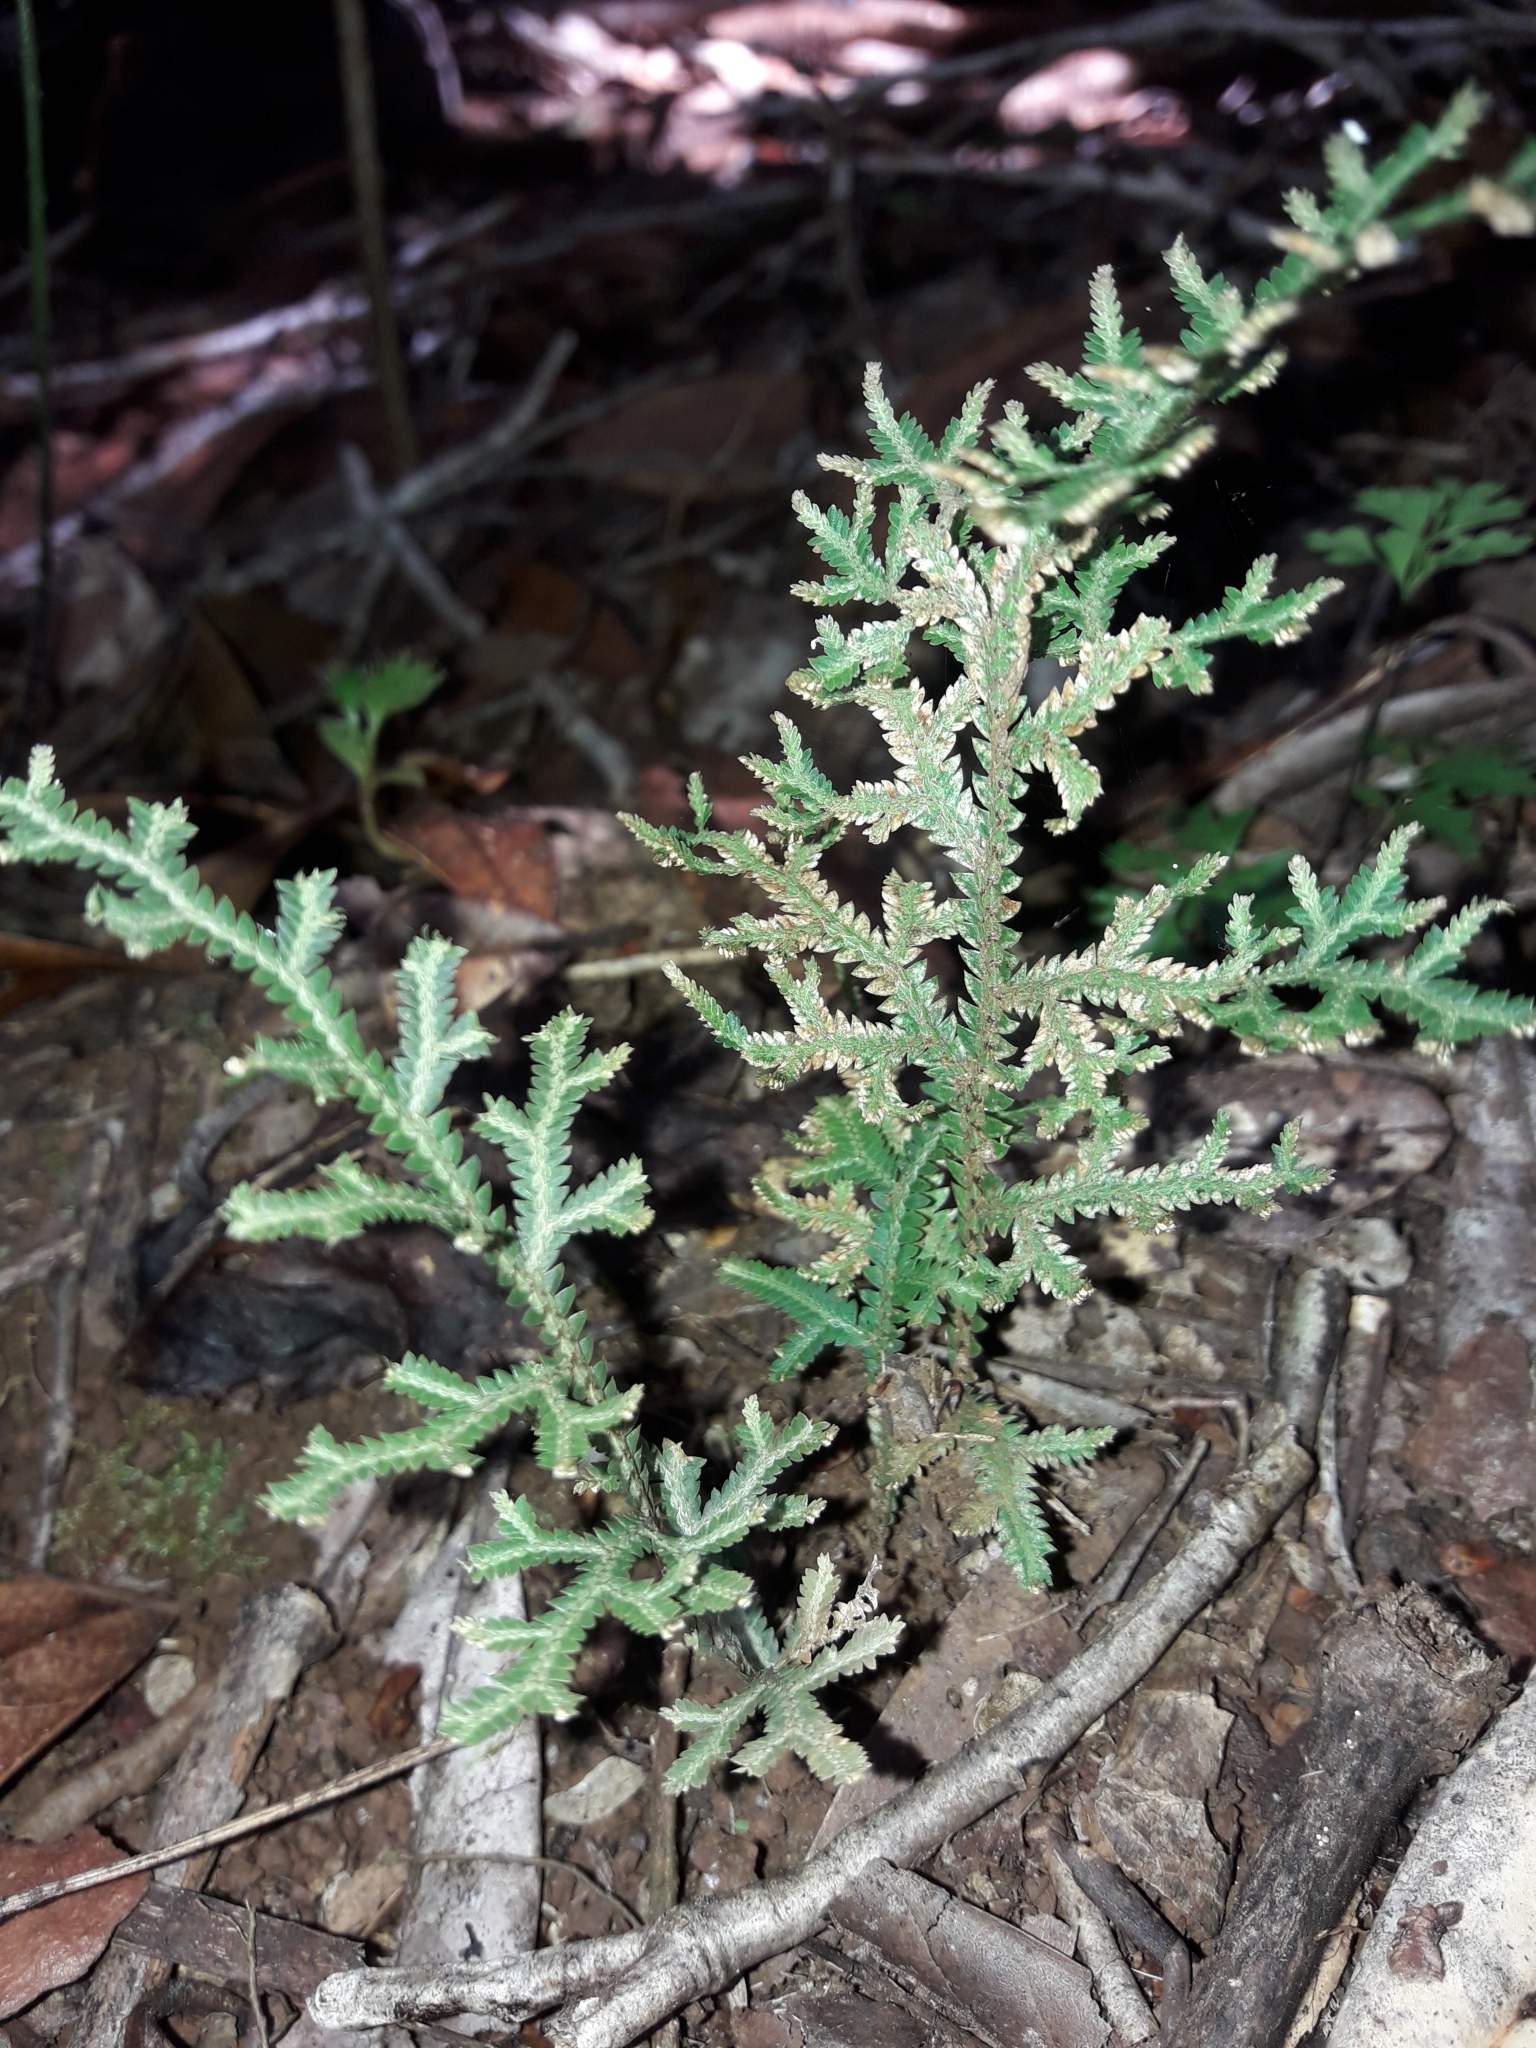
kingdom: Plantae
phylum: Tracheophyta
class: Lycopodiopsida
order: Selaginellales
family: Selaginellaceae
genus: Selaginella
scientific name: Selaginella neocaledonica
